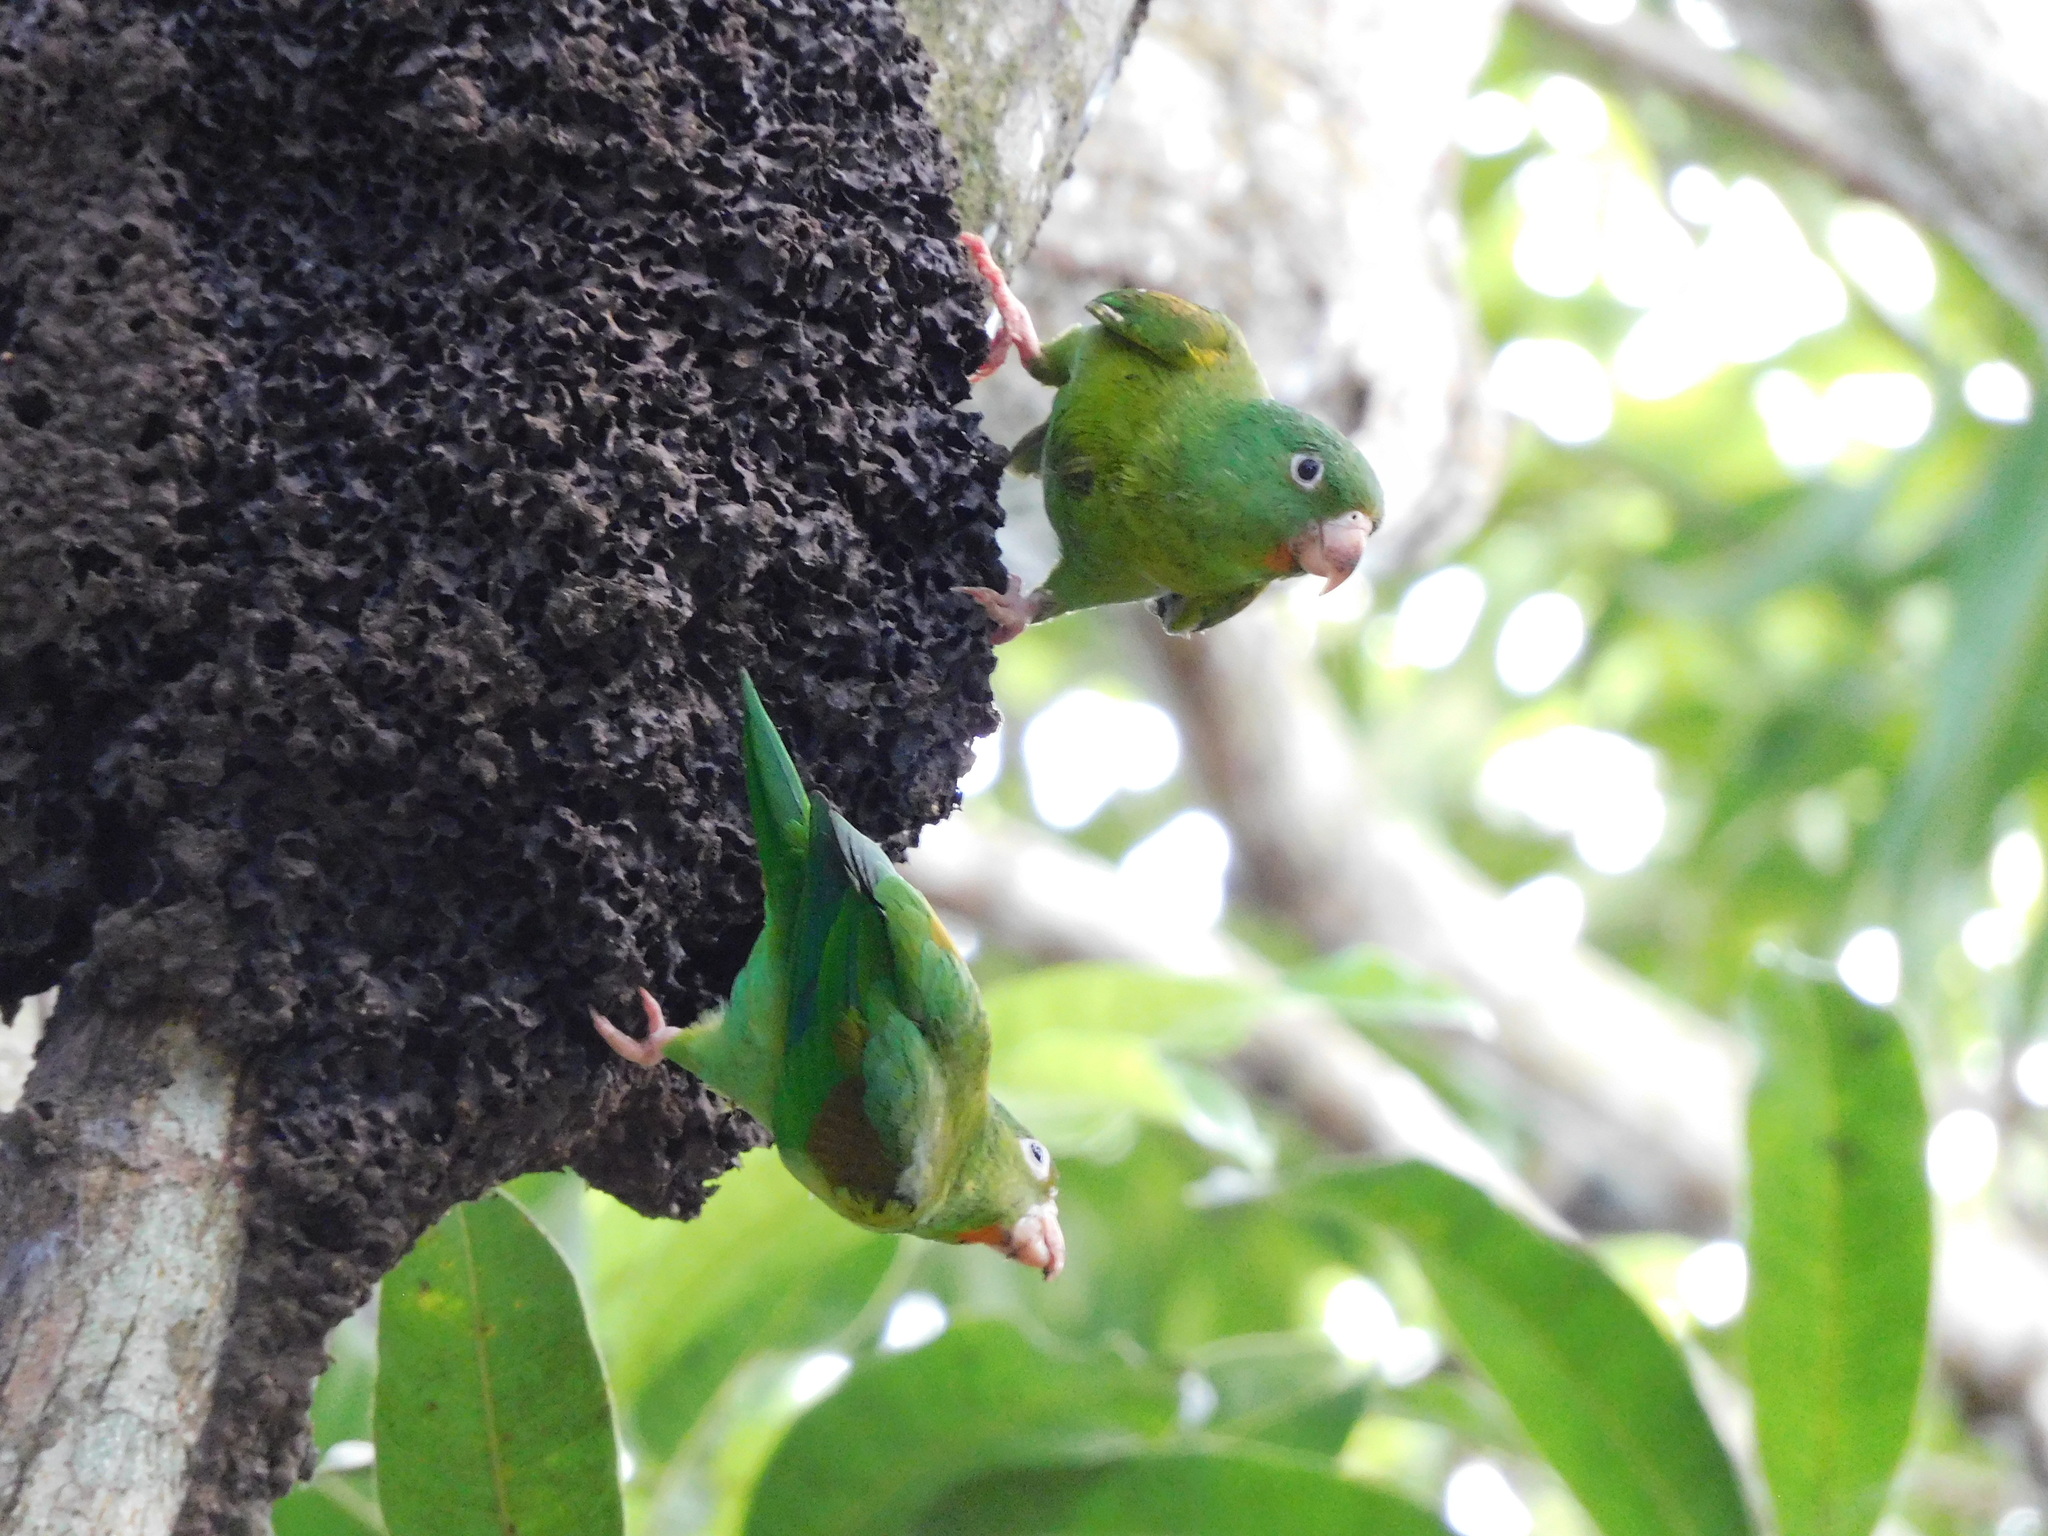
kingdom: Animalia
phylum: Chordata
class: Aves
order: Psittaciformes
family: Psittacidae
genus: Brotogeris
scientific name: Brotogeris jugularis
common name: Orange-chinned parakeet
